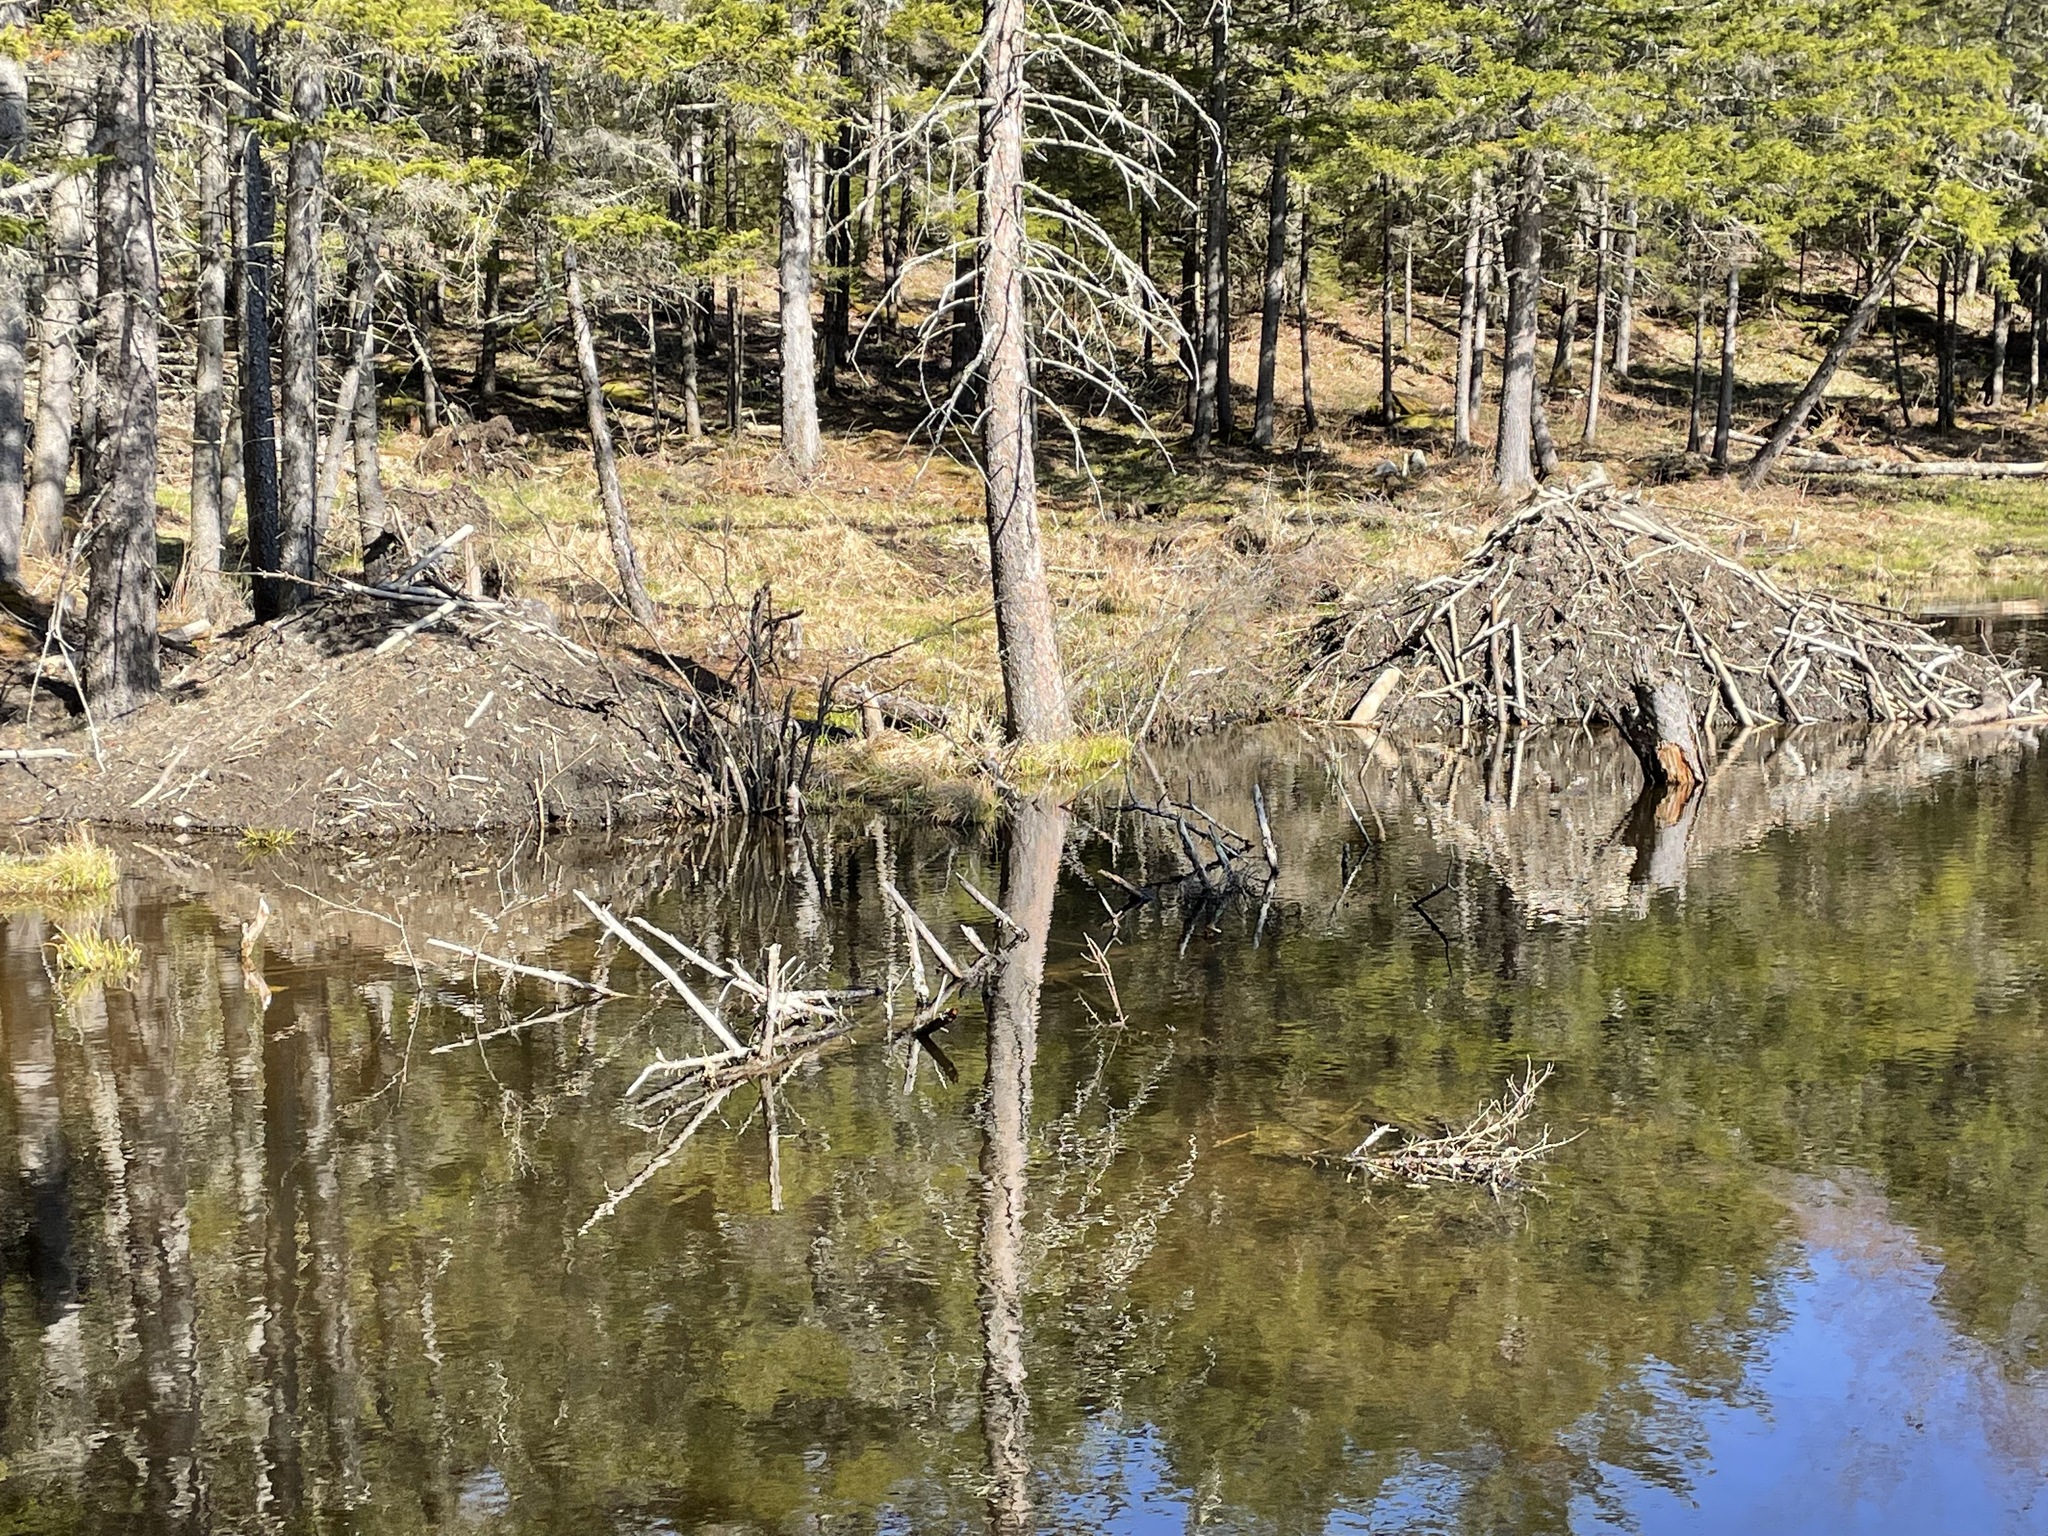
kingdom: Animalia
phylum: Chordata
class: Mammalia
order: Rodentia
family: Castoridae
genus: Castor
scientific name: Castor canadensis
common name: American beaver
